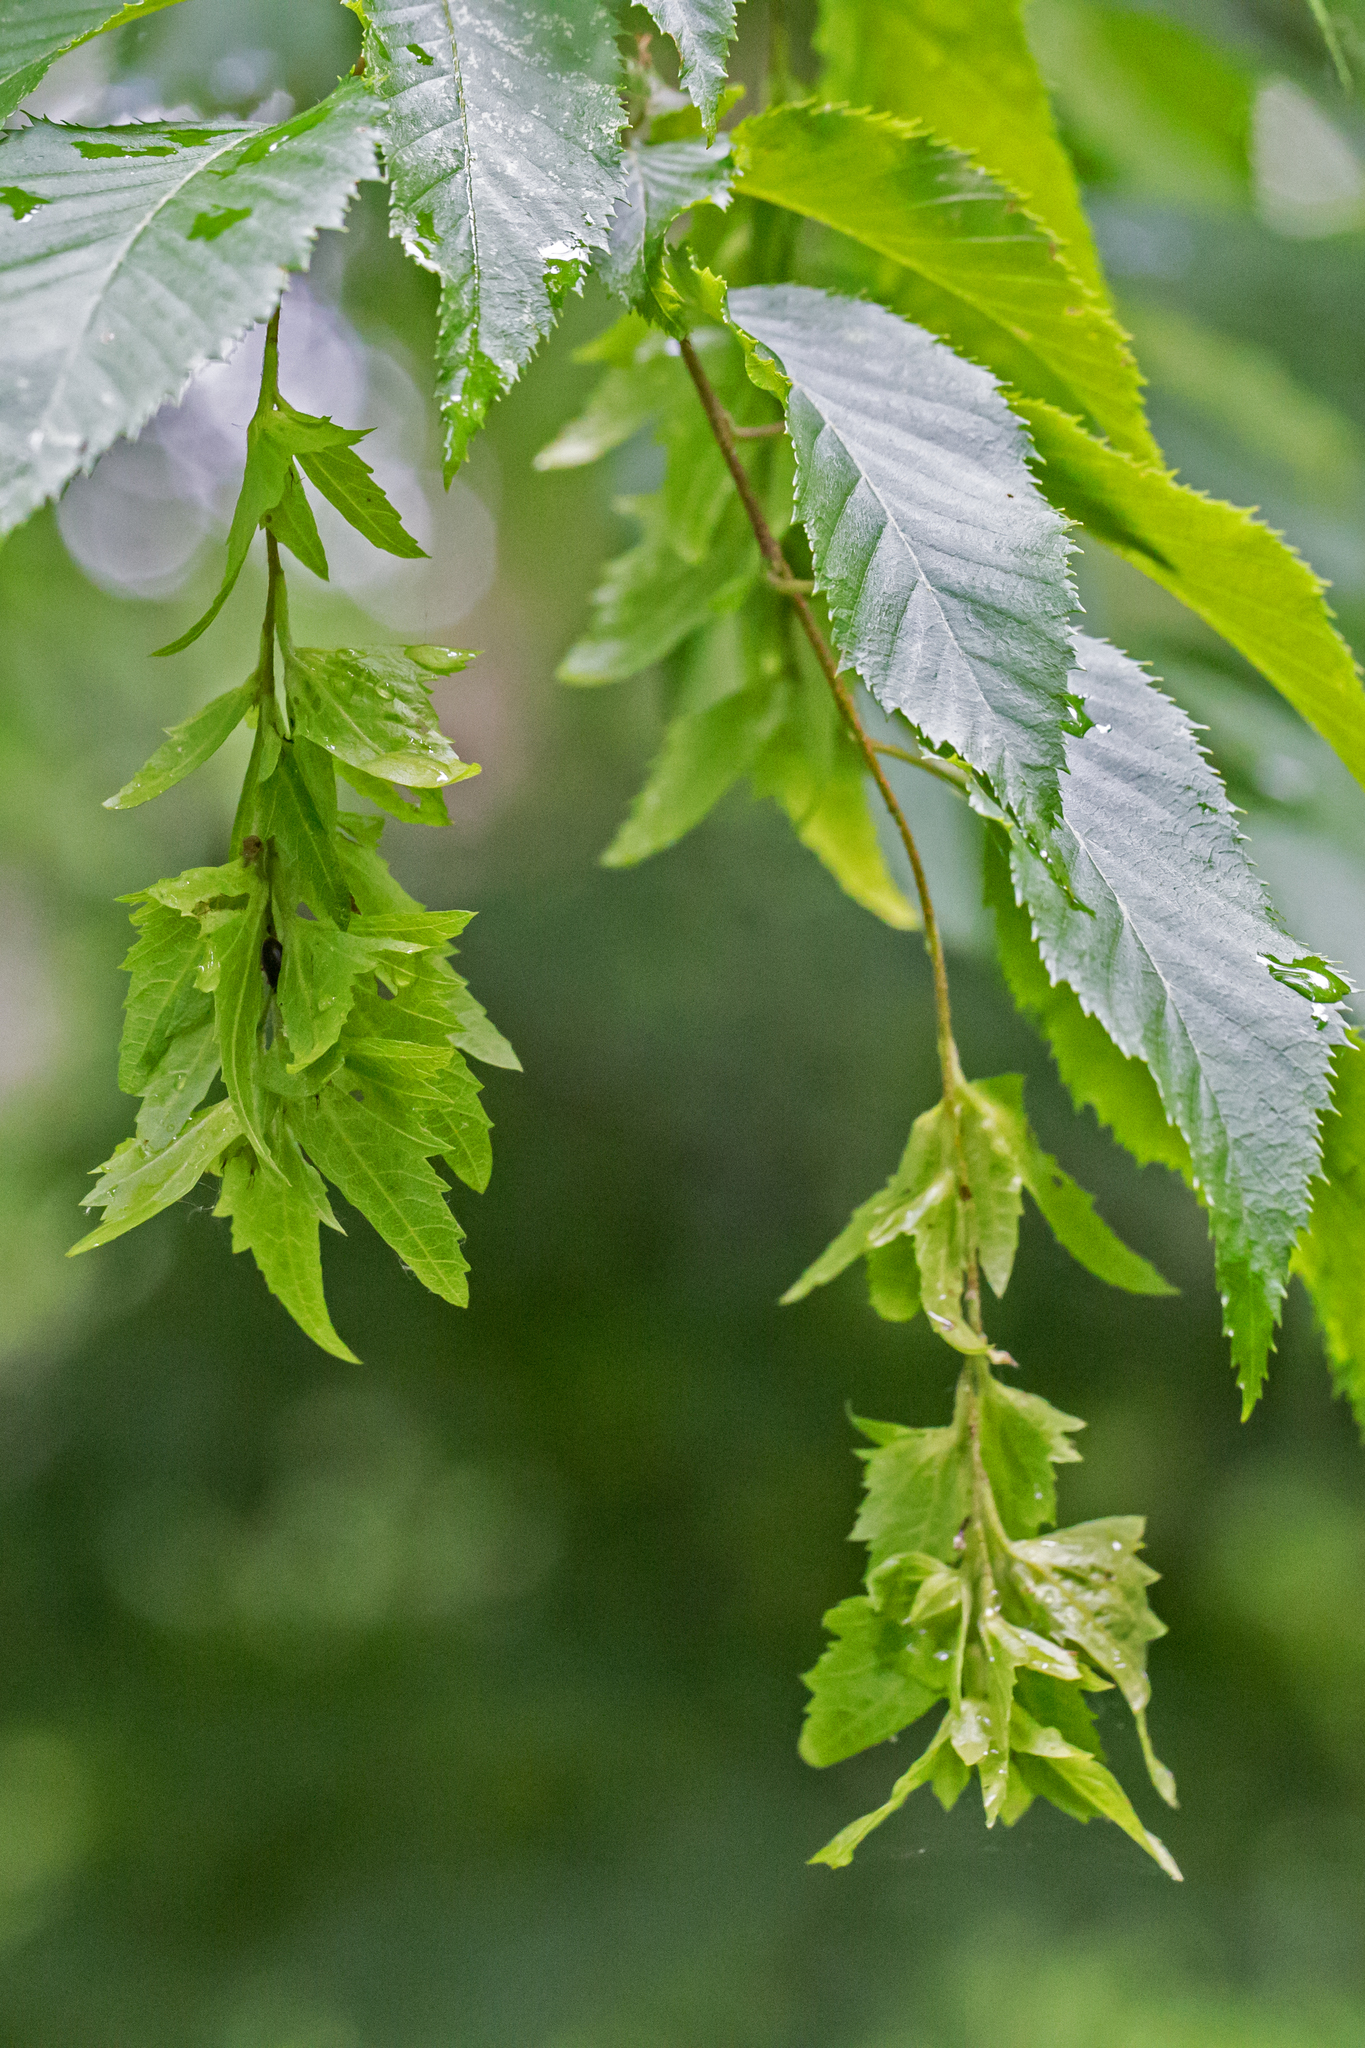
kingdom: Plantae
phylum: Tracheophyta
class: Magnoliopsida
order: Fagales
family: Betulaceae
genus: Carpinus
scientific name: Carpinus caroliniana
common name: American hornbeam
